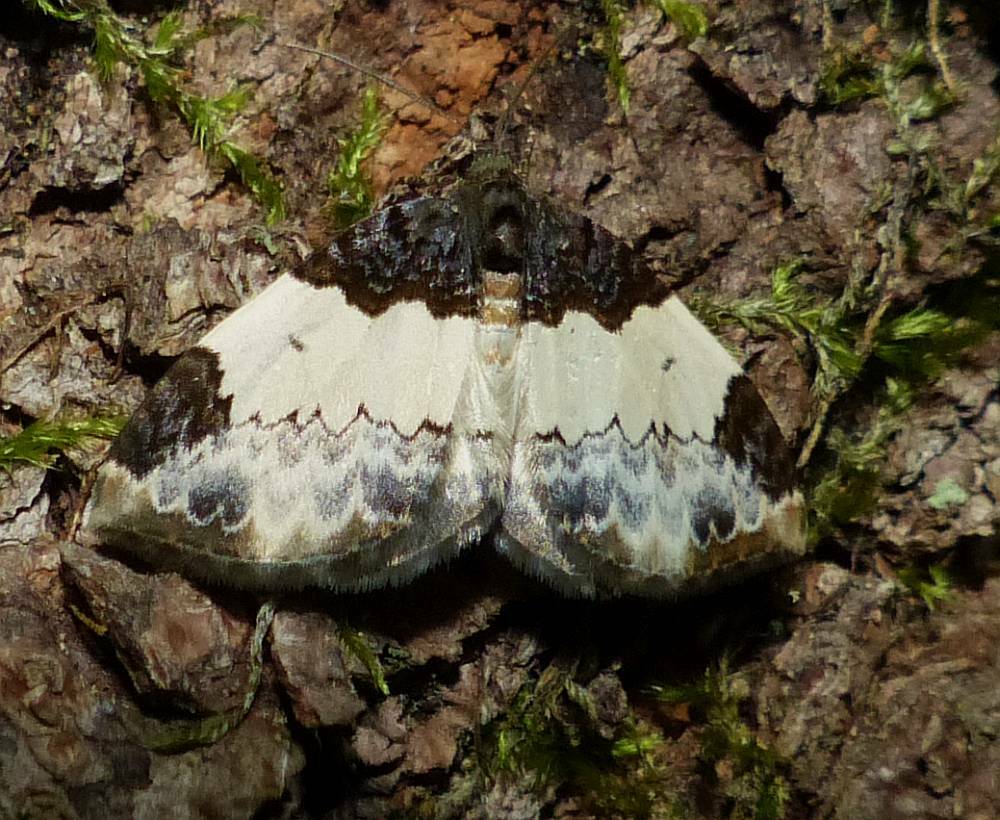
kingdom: Animalia
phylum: Arthropoda
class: Insecta
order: Lepidoptera
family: Geometridae
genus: Mesoleuca
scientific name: Mesoleuca ruficillata
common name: White-ribboned carpet moth
